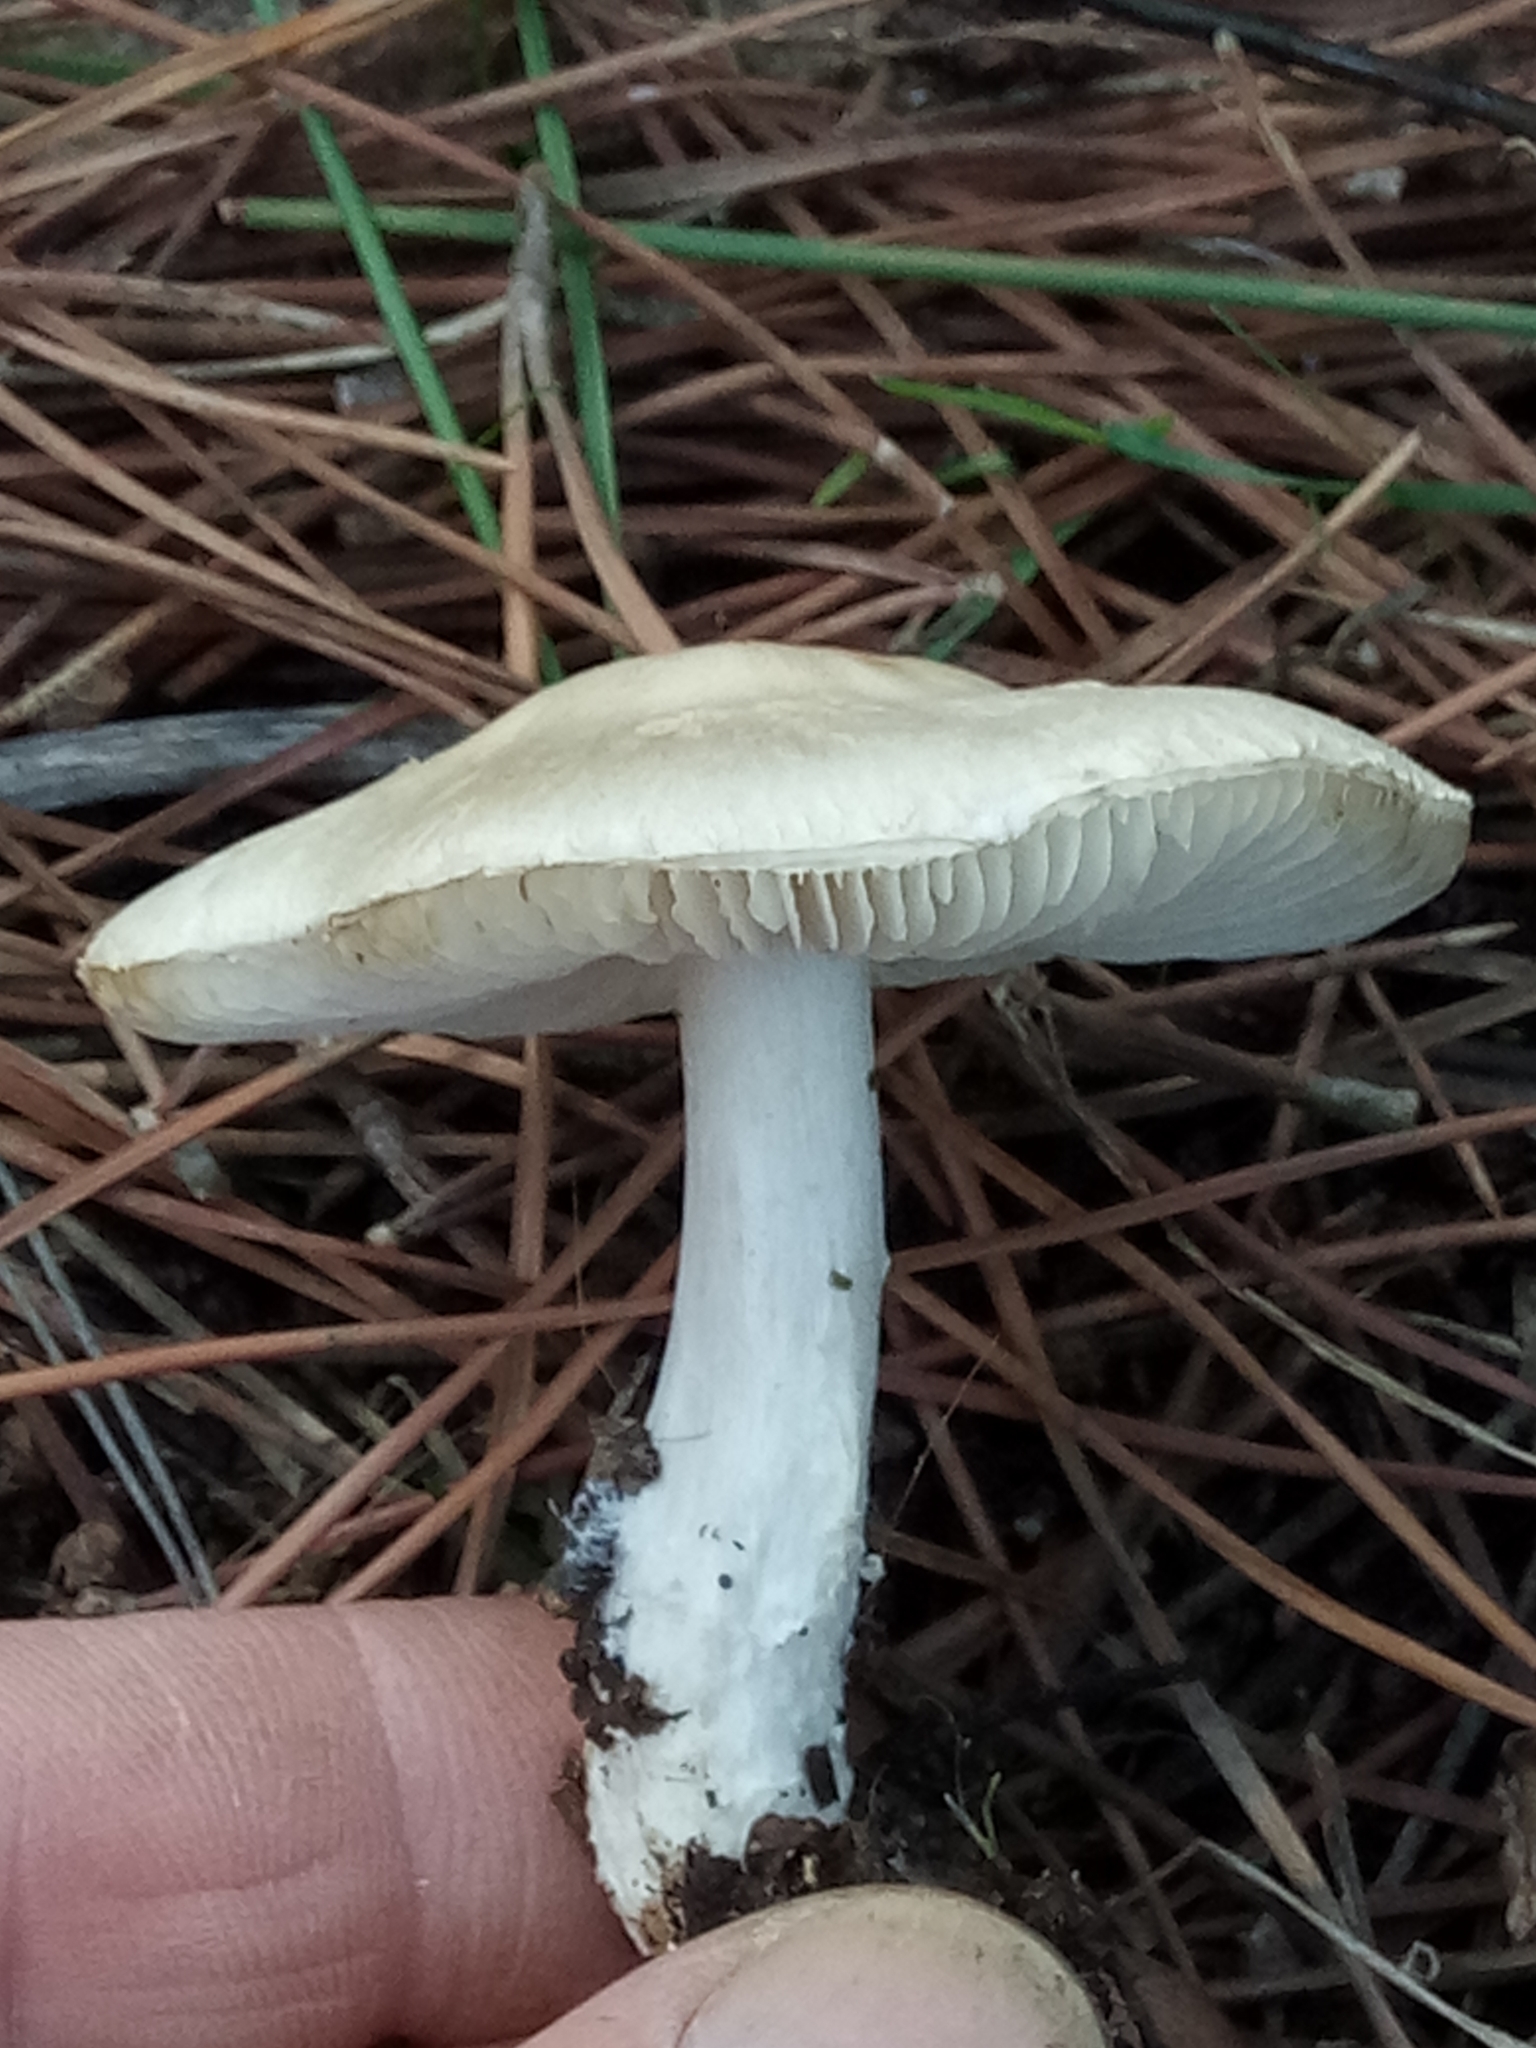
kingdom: Fungi
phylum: Basidiomycota
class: Agaricomycetes
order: Agaricales
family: Amanitaceae
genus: Limacella
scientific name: Limacella furnacea
